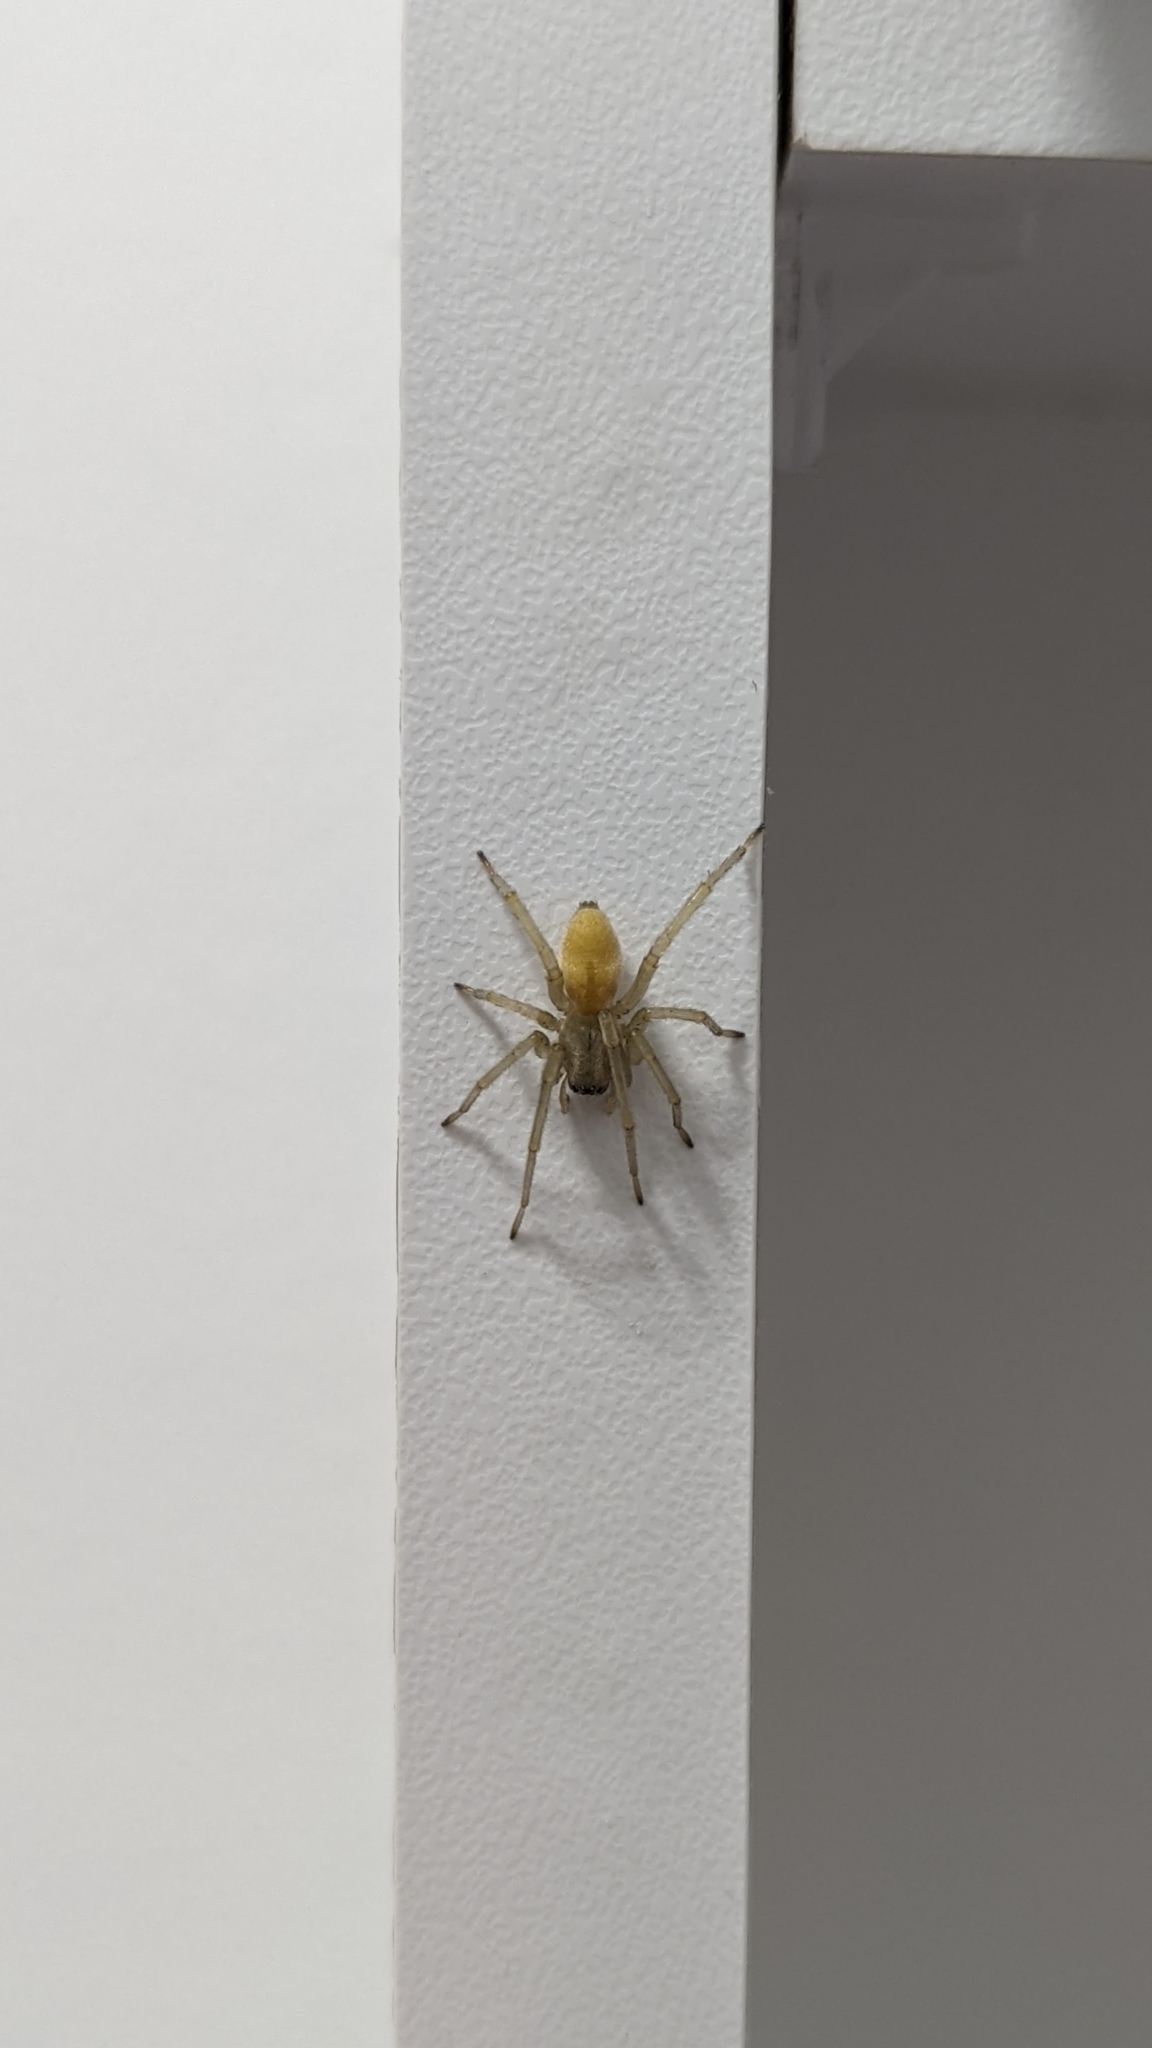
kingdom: Animalia
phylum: Arthropoda
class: Arachnida
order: Araneae
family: Cheiracanthiidae
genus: Cheiracanthium
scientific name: Cheiracanthium mildei
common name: Northern yellow sac spider
